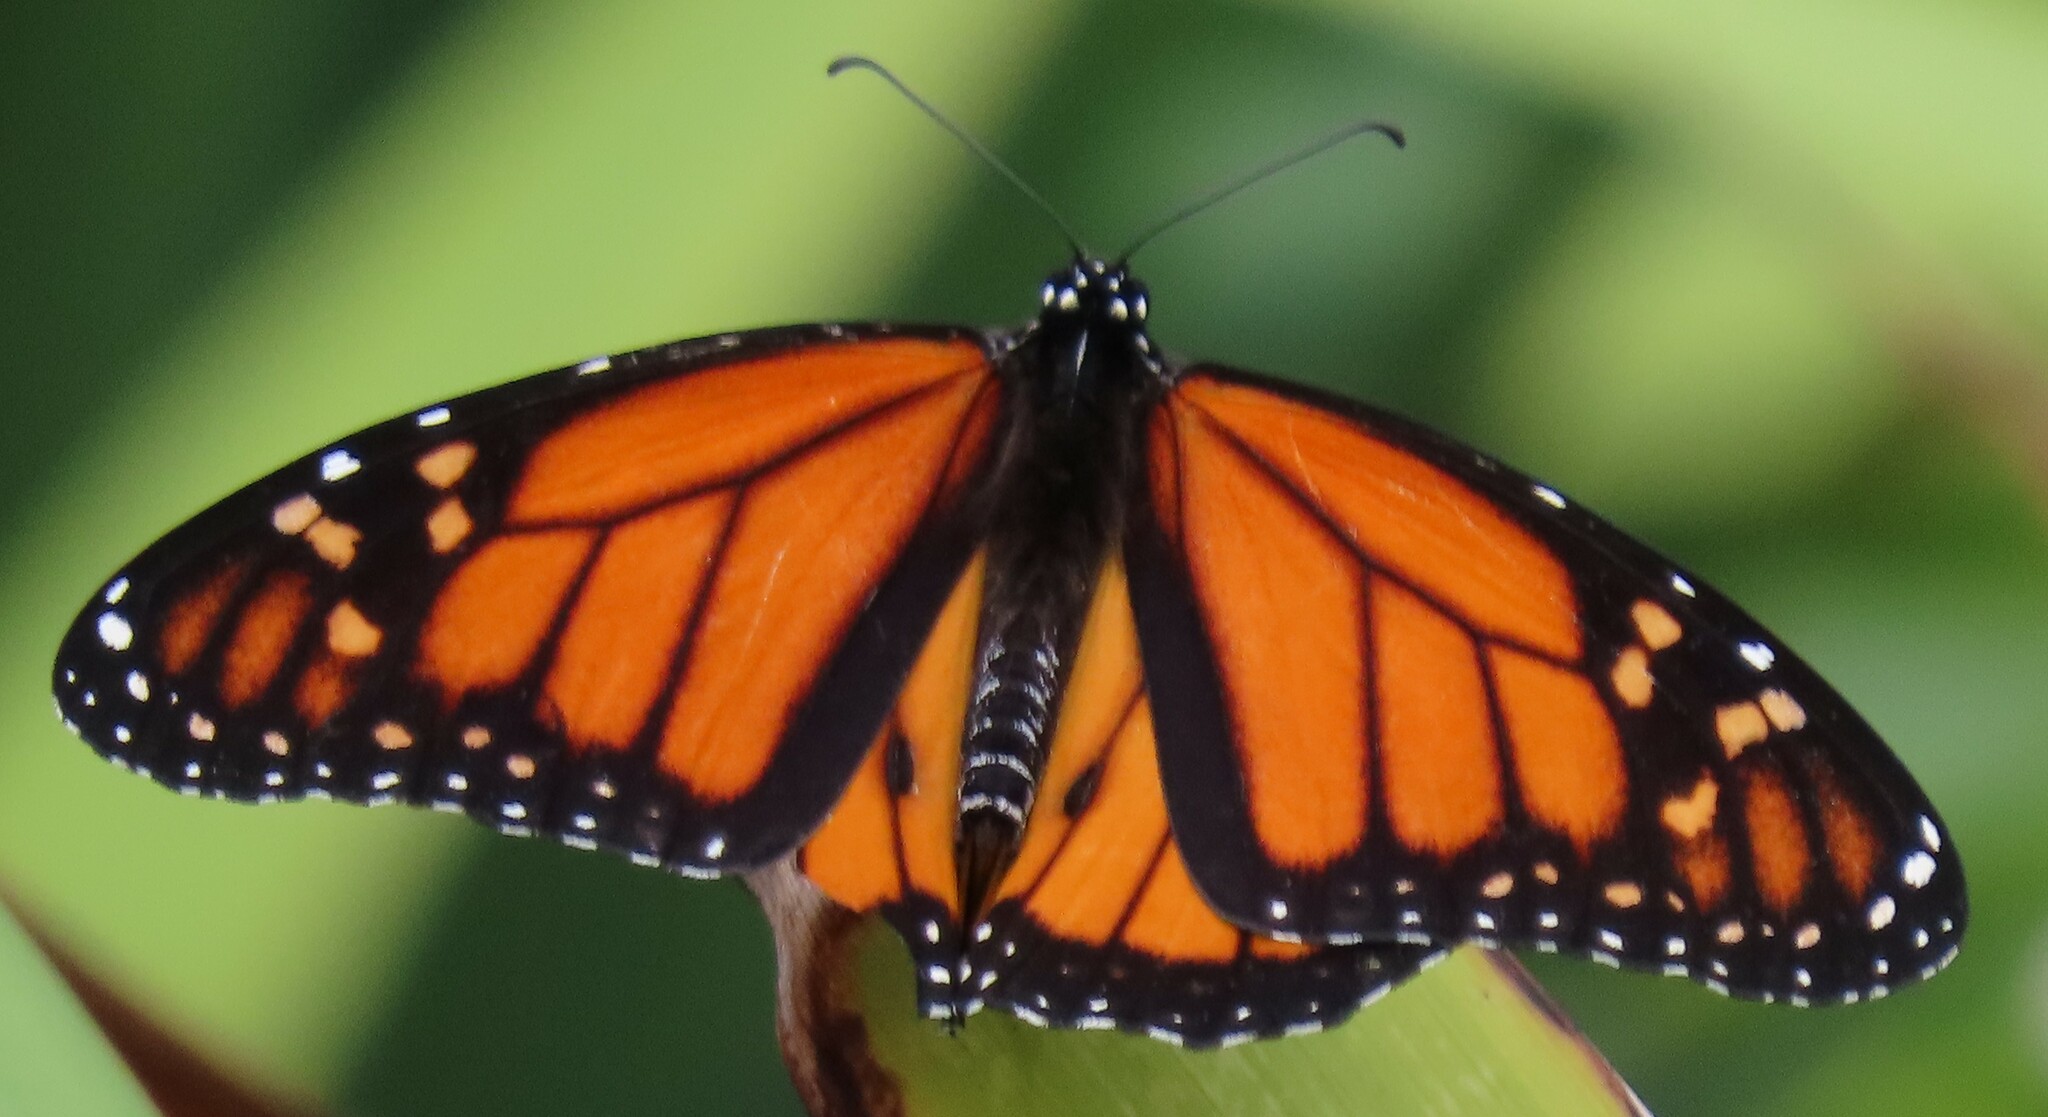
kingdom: Animalia
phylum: Arthropoda
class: Insecta
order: Lepidoptera
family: Nymphalidae
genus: Danaus
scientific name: Danaus plexippus
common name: Monarch
